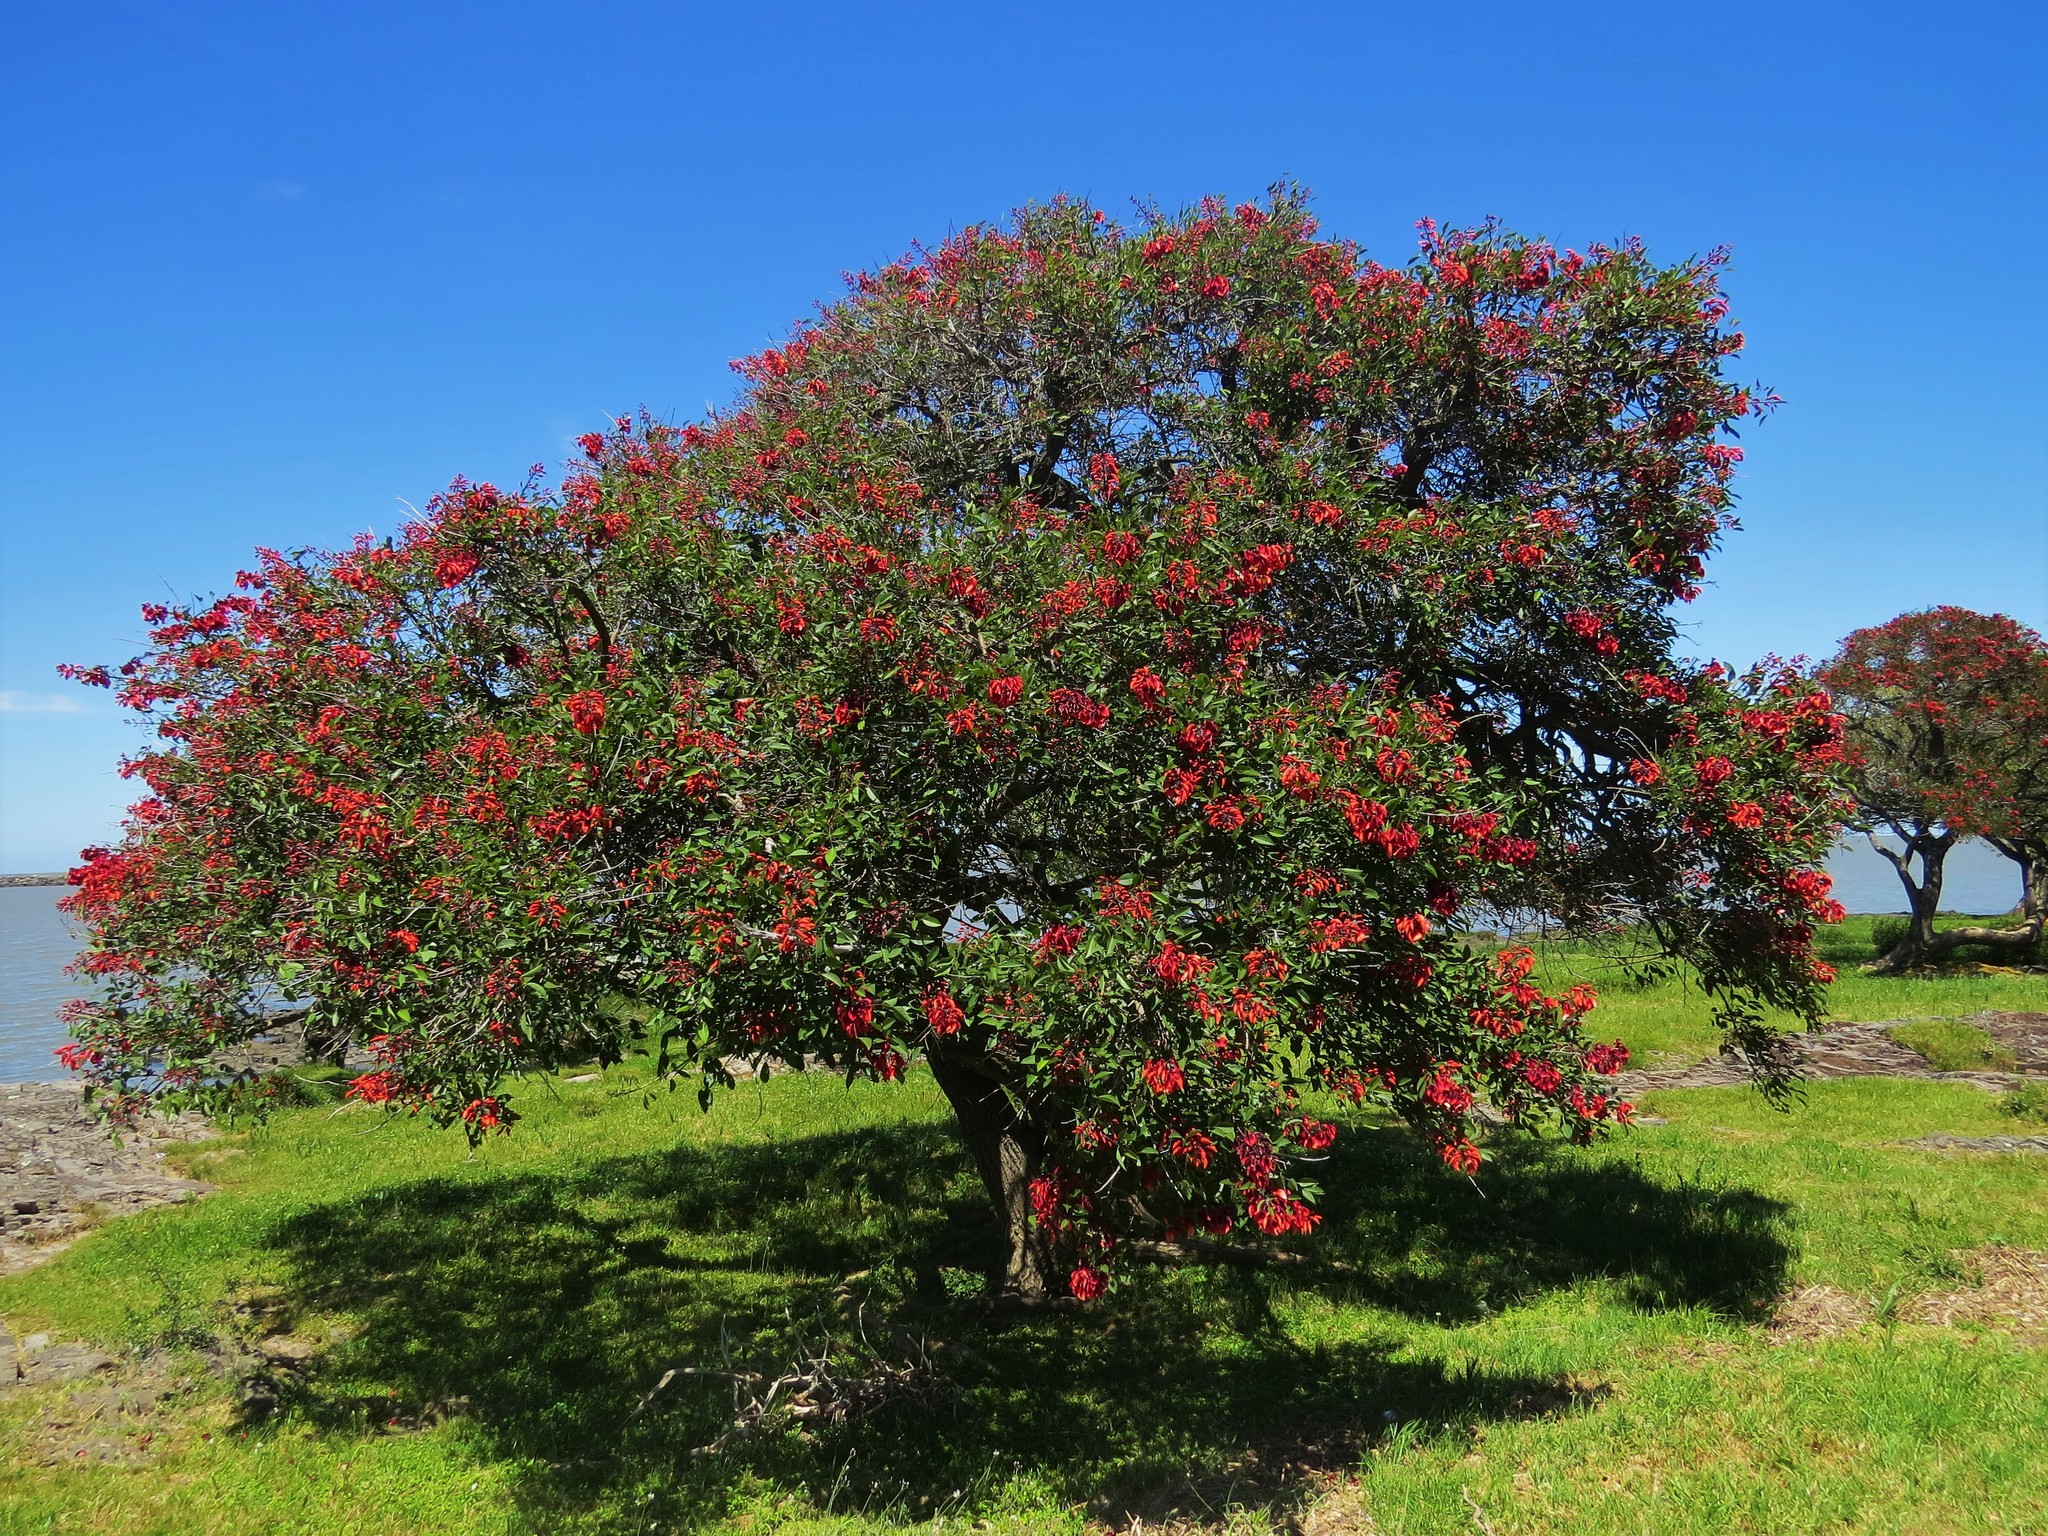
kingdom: Plantae
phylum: Tracheophyta
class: Magnoliopsida
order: Fabales
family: Fabaceae
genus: Erythrina
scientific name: Erythrina crista-galli
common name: Cockspur coral tree
